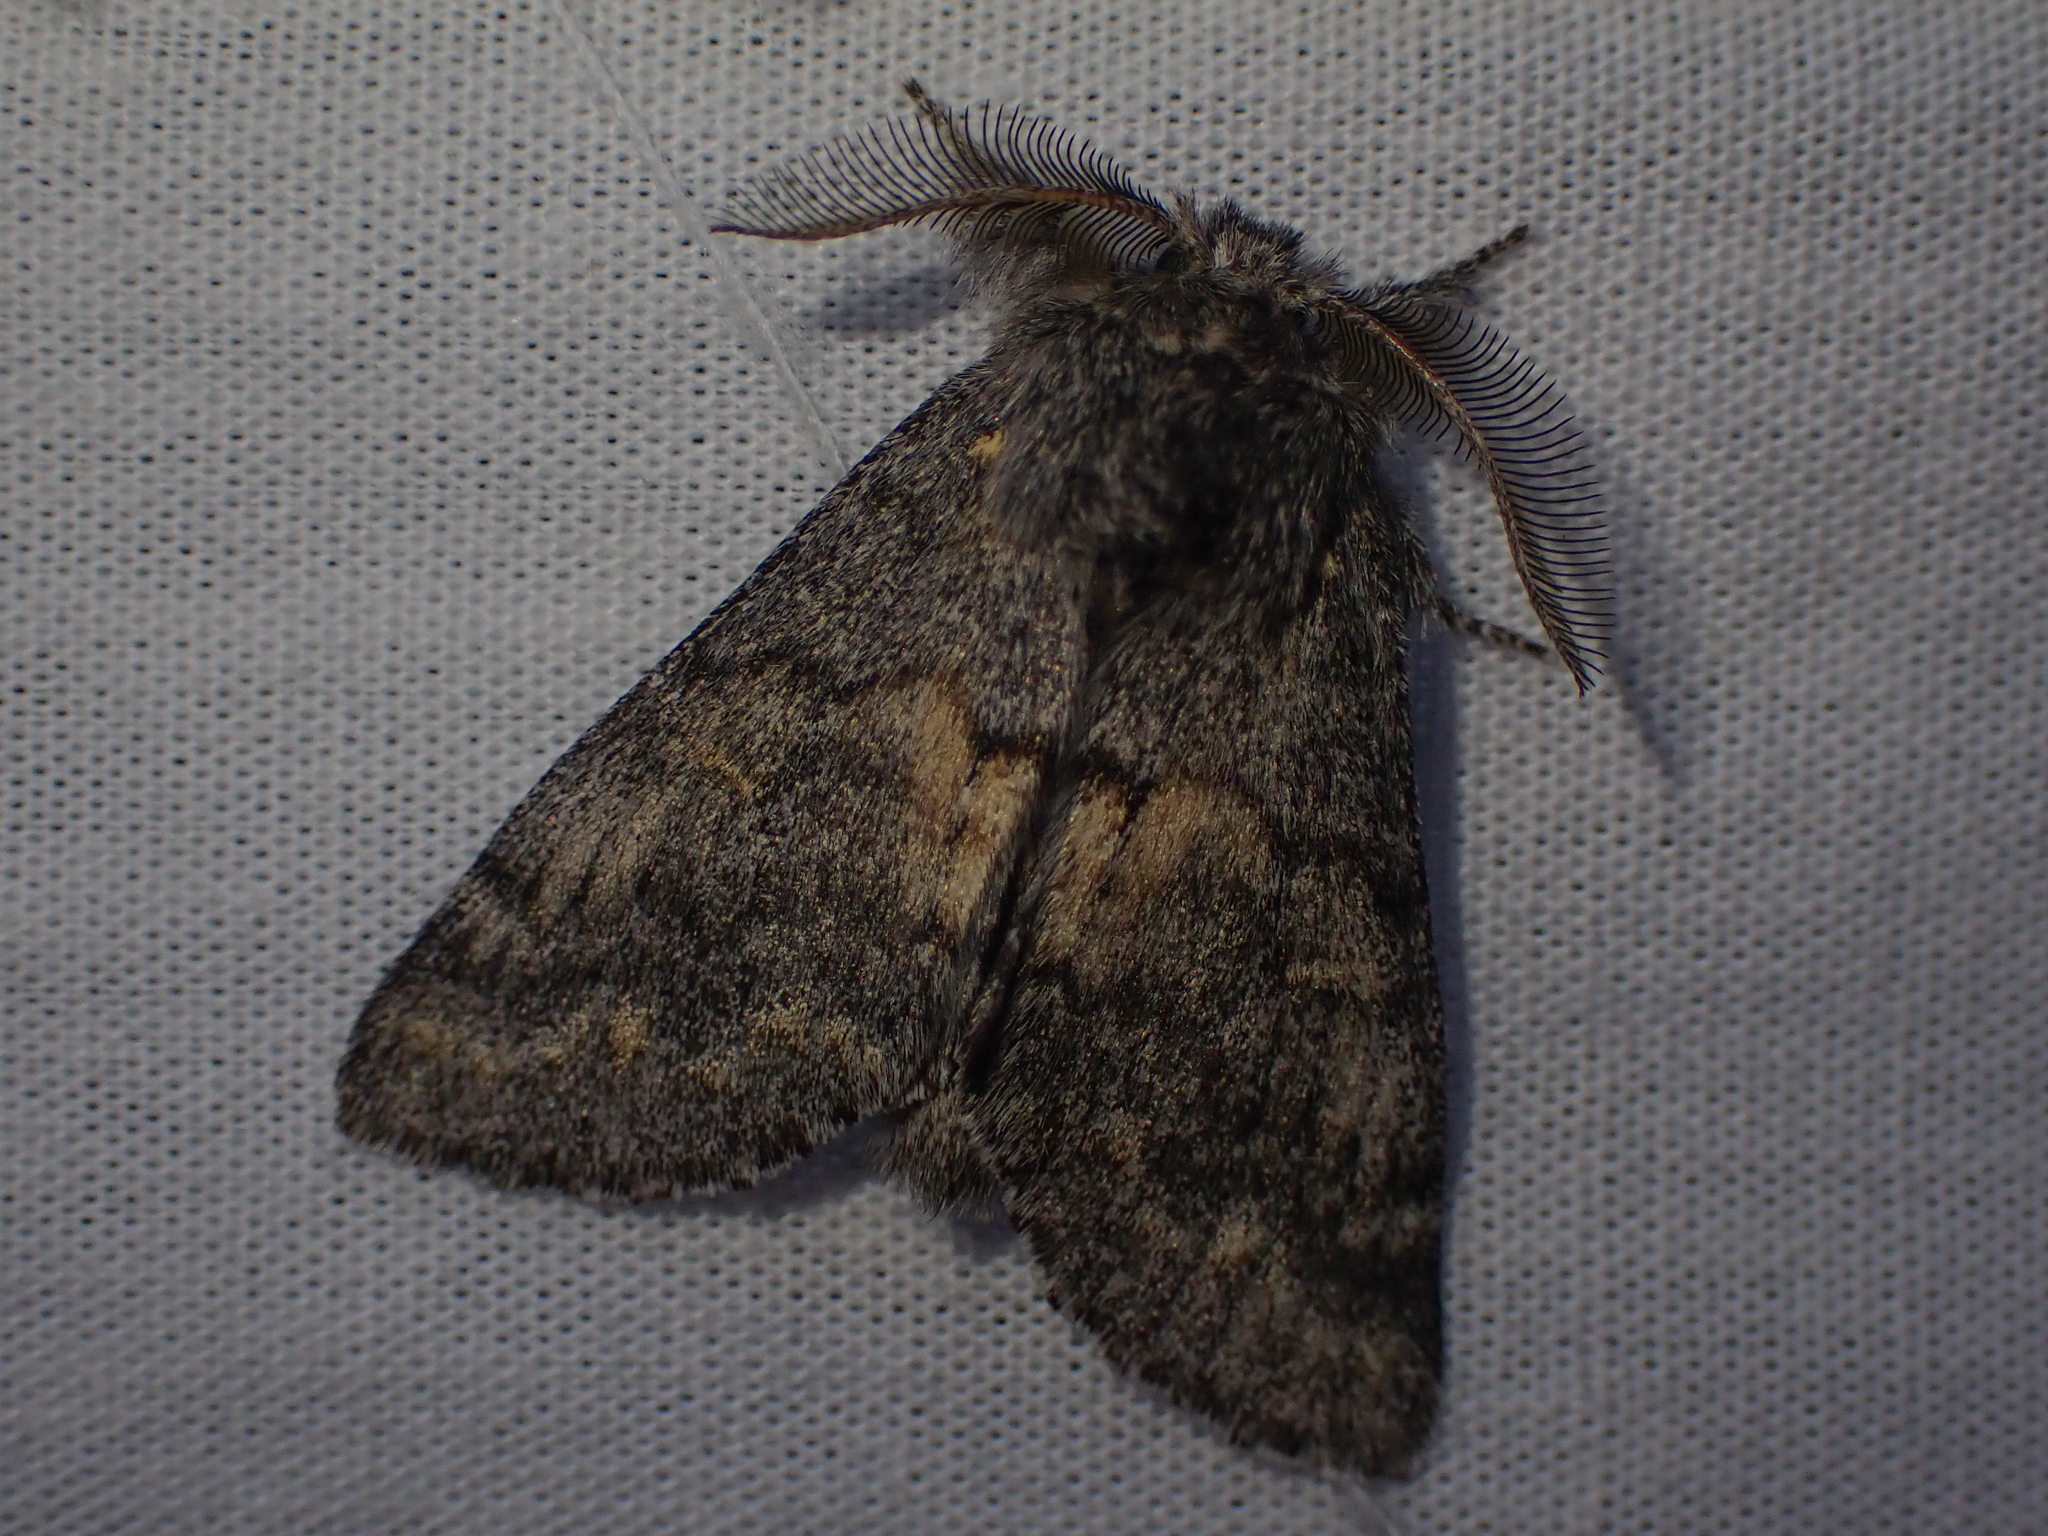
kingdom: Animalia
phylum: Arthropoda
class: Insecta
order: Lepidoptera
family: Notodontidae
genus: Gluphisia
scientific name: Gluphisia severa
